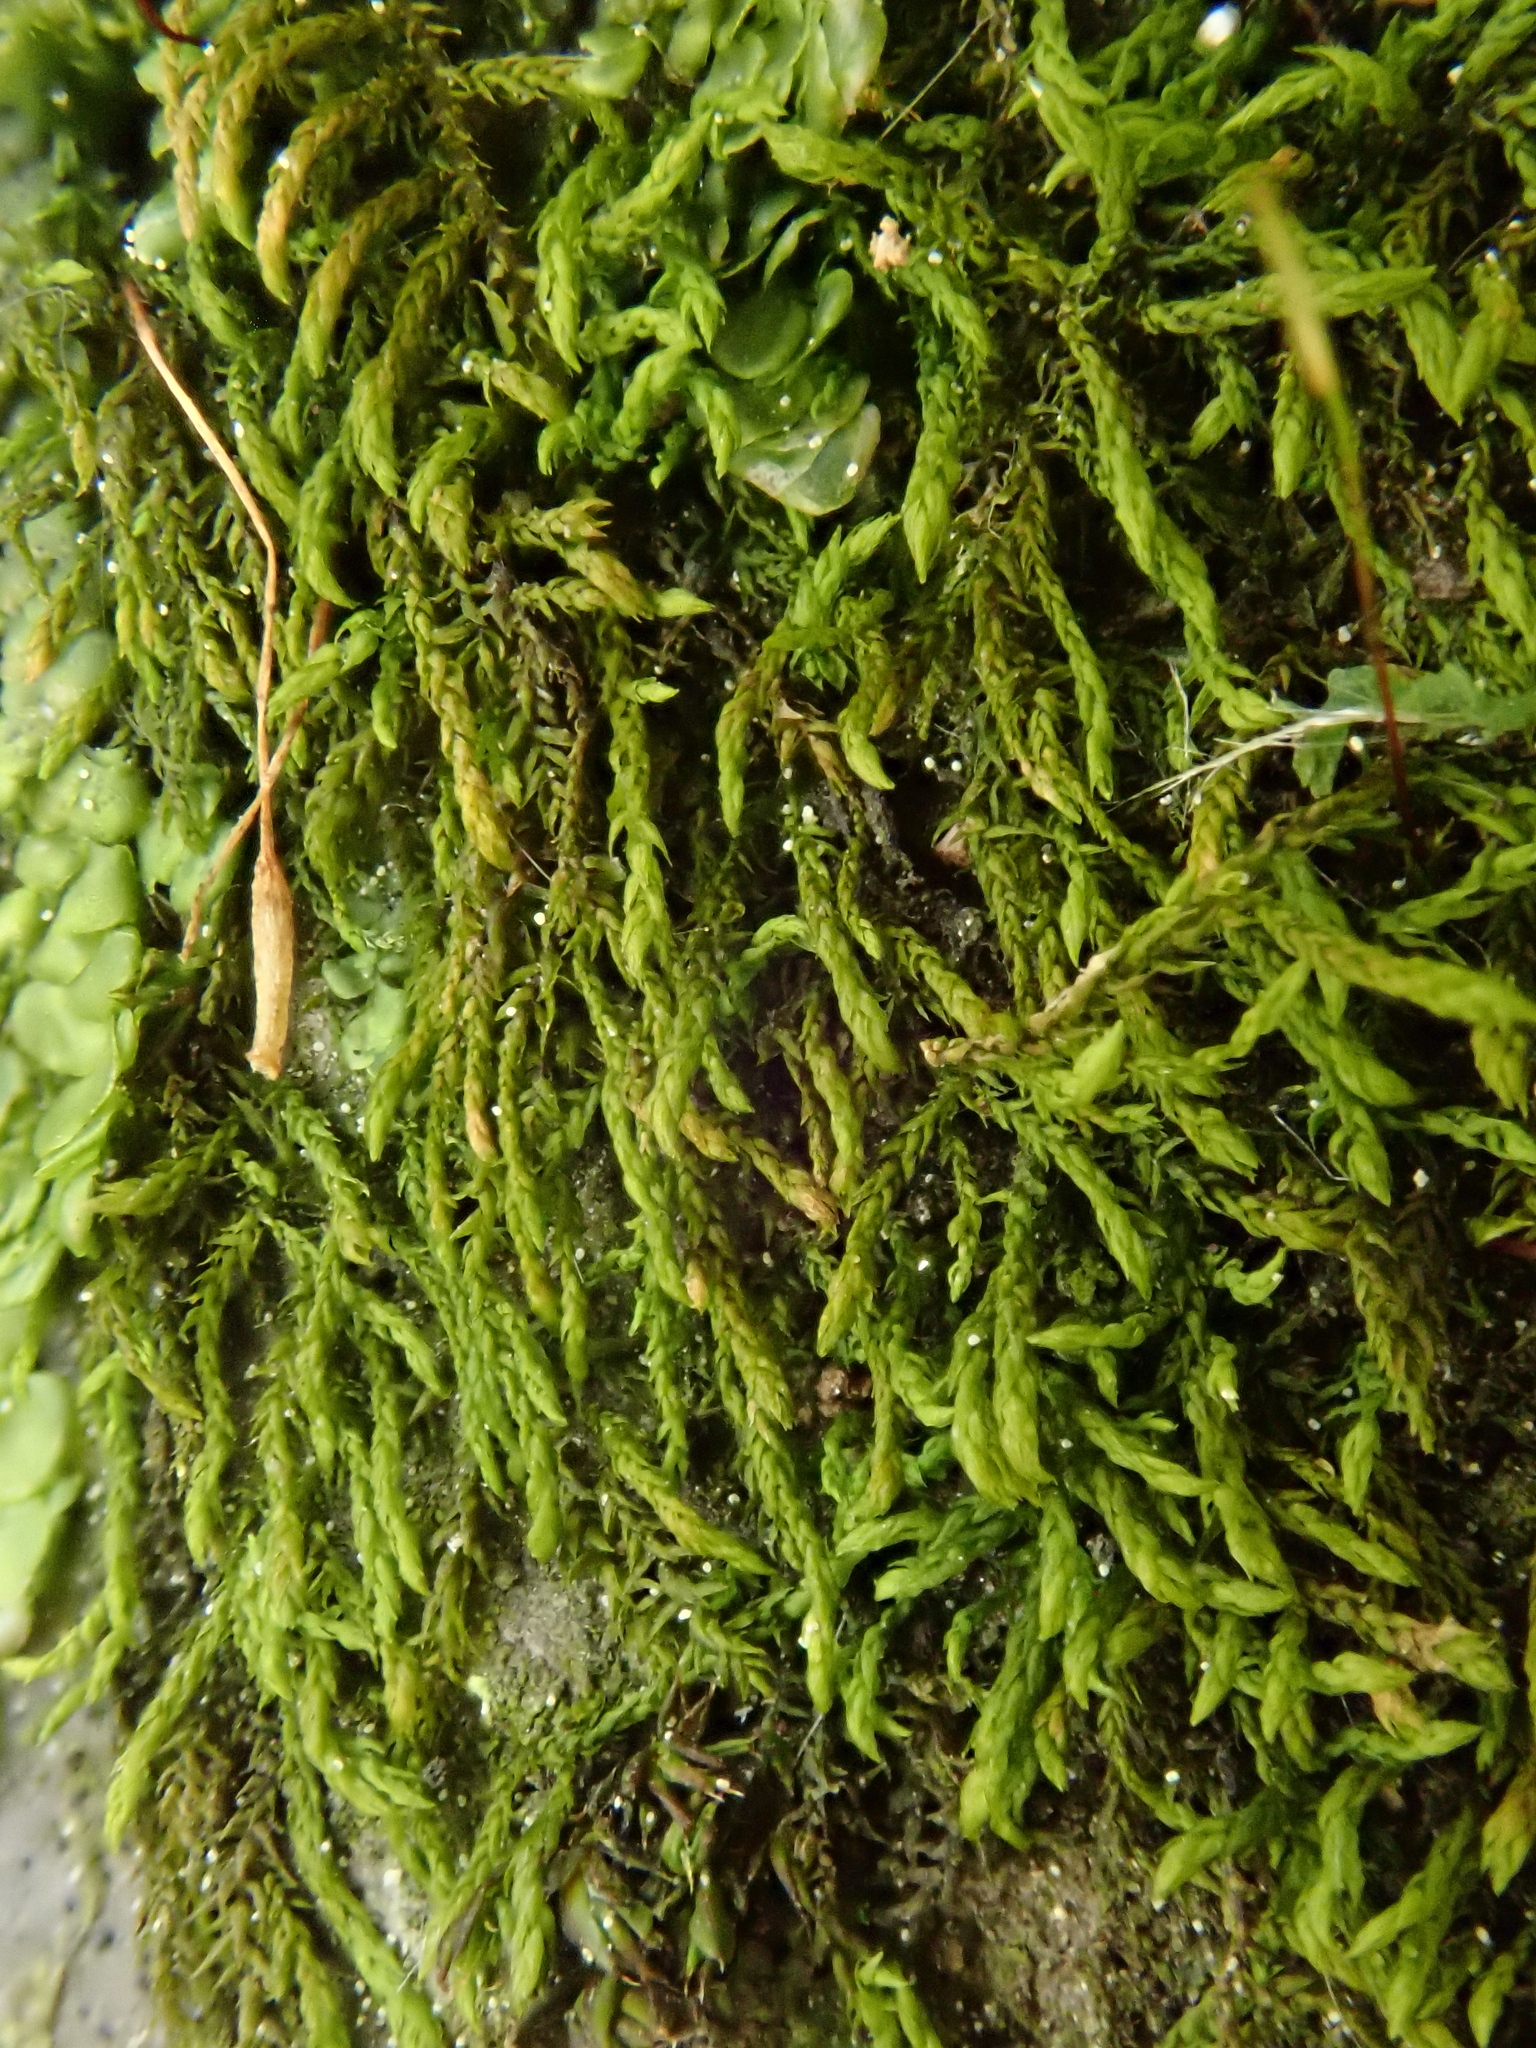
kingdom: Plantae
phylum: Bryophyta
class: Bryopsida
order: Hypnales
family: Leskeaceae
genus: Leskea
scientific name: Leskea polycarpa
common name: Many-fruited leske's moss
